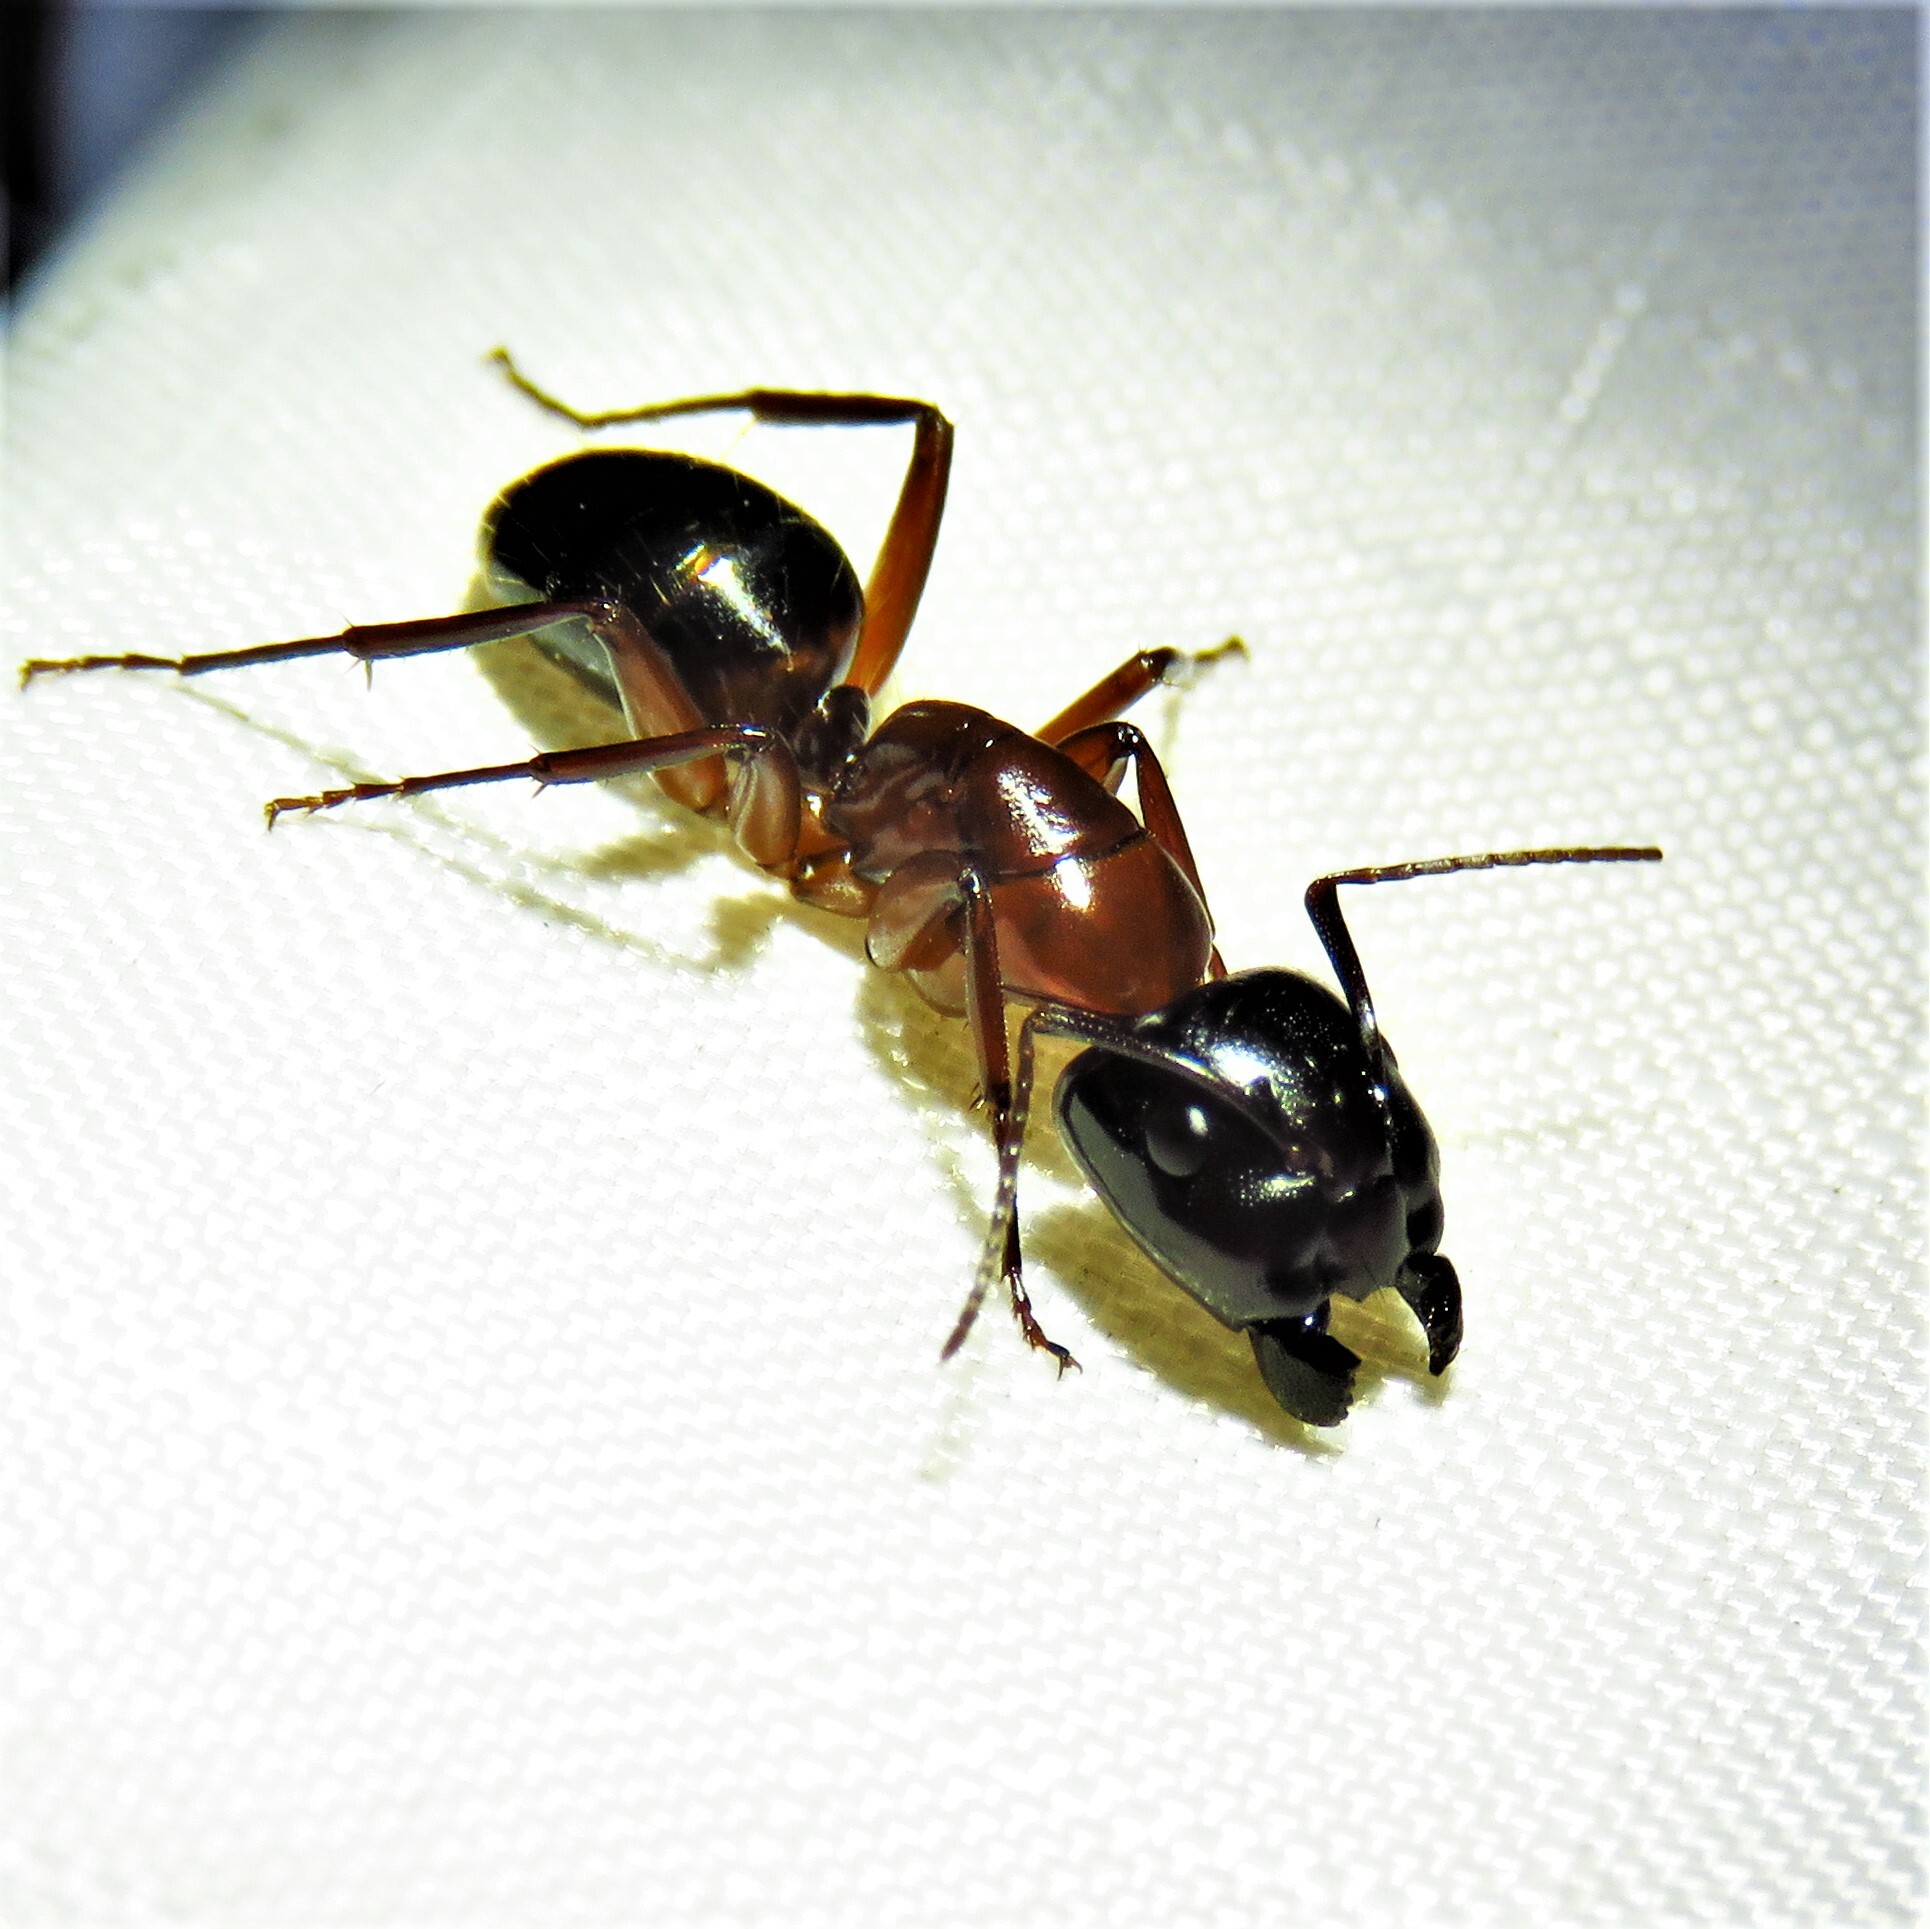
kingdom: Animalia
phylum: Arthropoda
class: Insecta
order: Hymenoptera
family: Formicidae
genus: Camponotus
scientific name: Camponotus texanus
